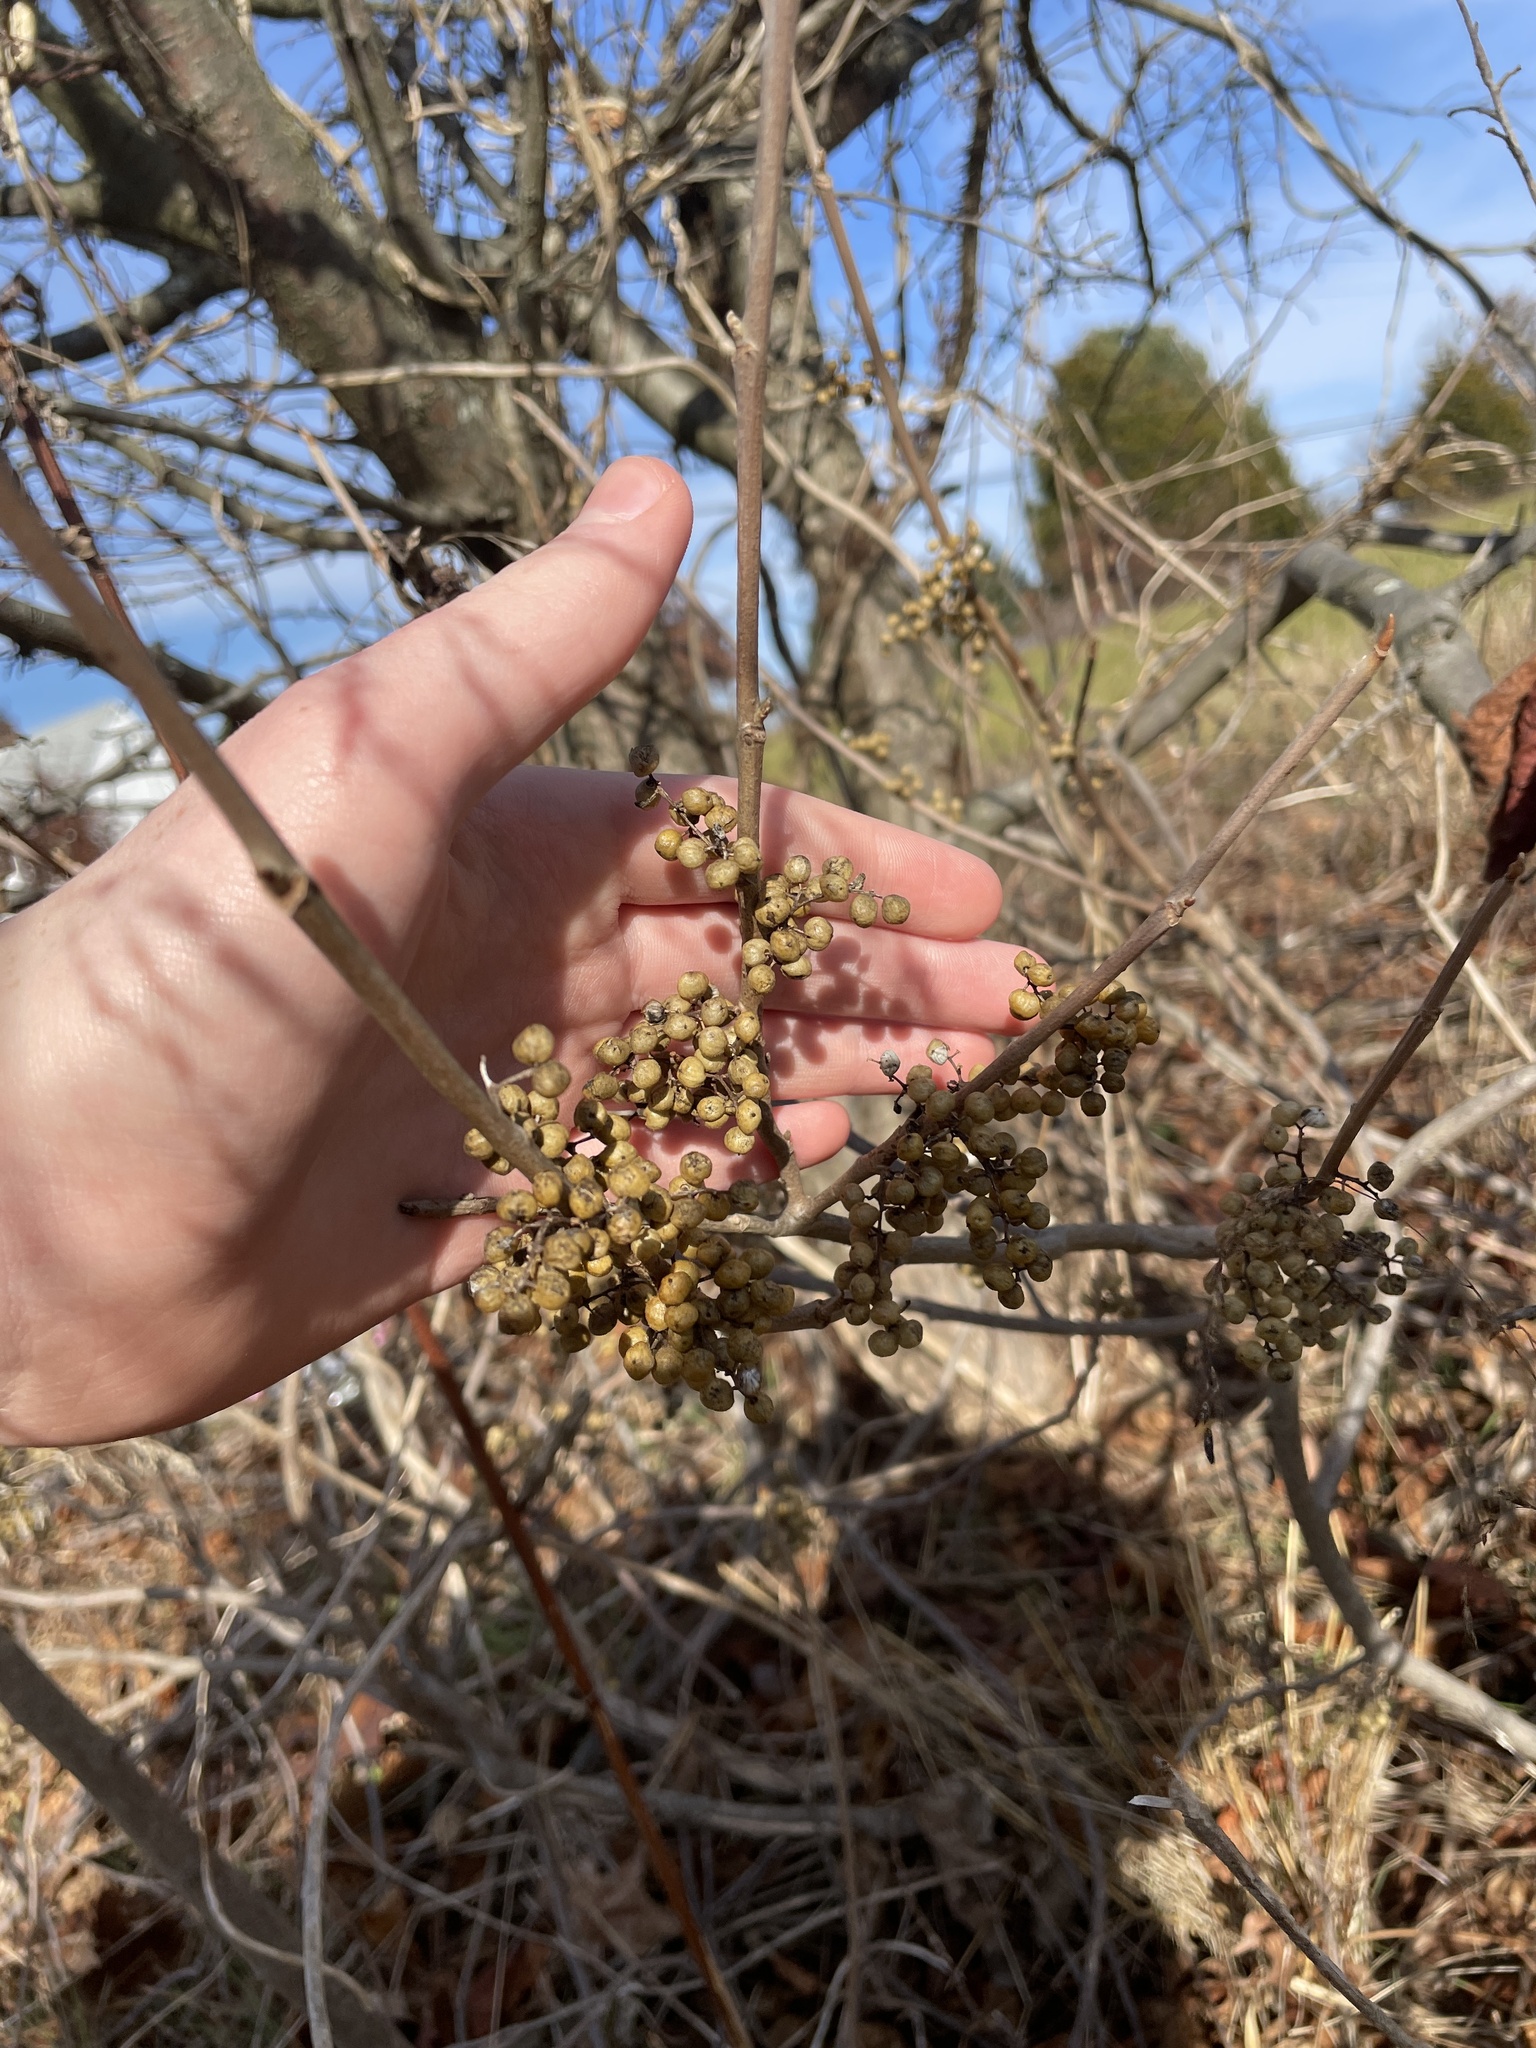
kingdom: Plantae
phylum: Tracheophyta
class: Magnoliopsida
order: Sapindales
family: Anacardiaceae
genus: Toxicodendron
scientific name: Toxicodendron radicans
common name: Poison ivy
